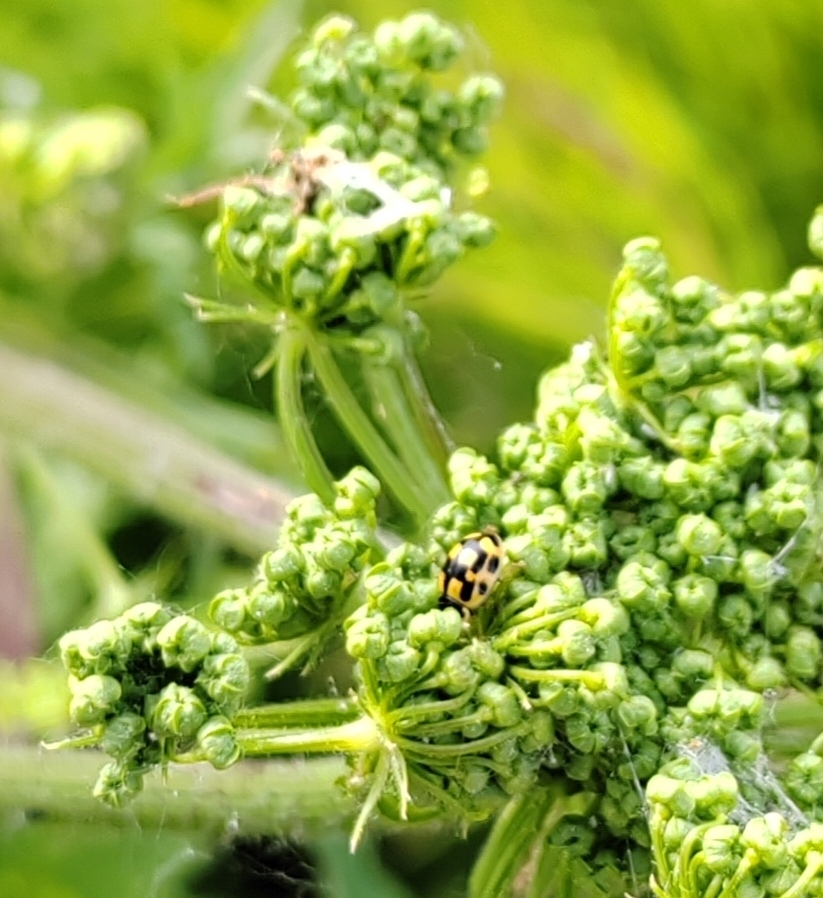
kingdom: Animalia
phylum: Arthropoda
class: Insecta
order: Coleoptera
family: Coccinellidae
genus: Propylaea
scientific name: Propylaea quatuordecimpunctata
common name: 14-spotted ladybird beetle
